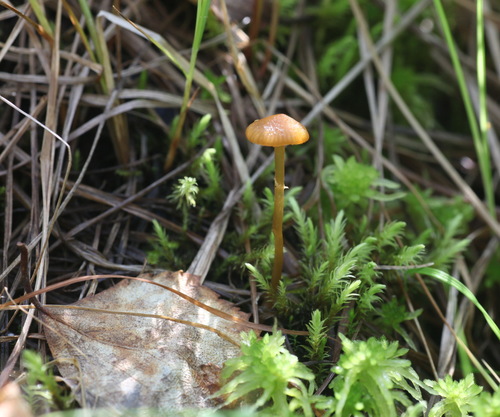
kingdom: Fungi
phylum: Basidiomycota
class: Agaricomycetes
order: Agaricales
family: Hymenogastraceae
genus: Galerina
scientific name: Galerina jaapii
